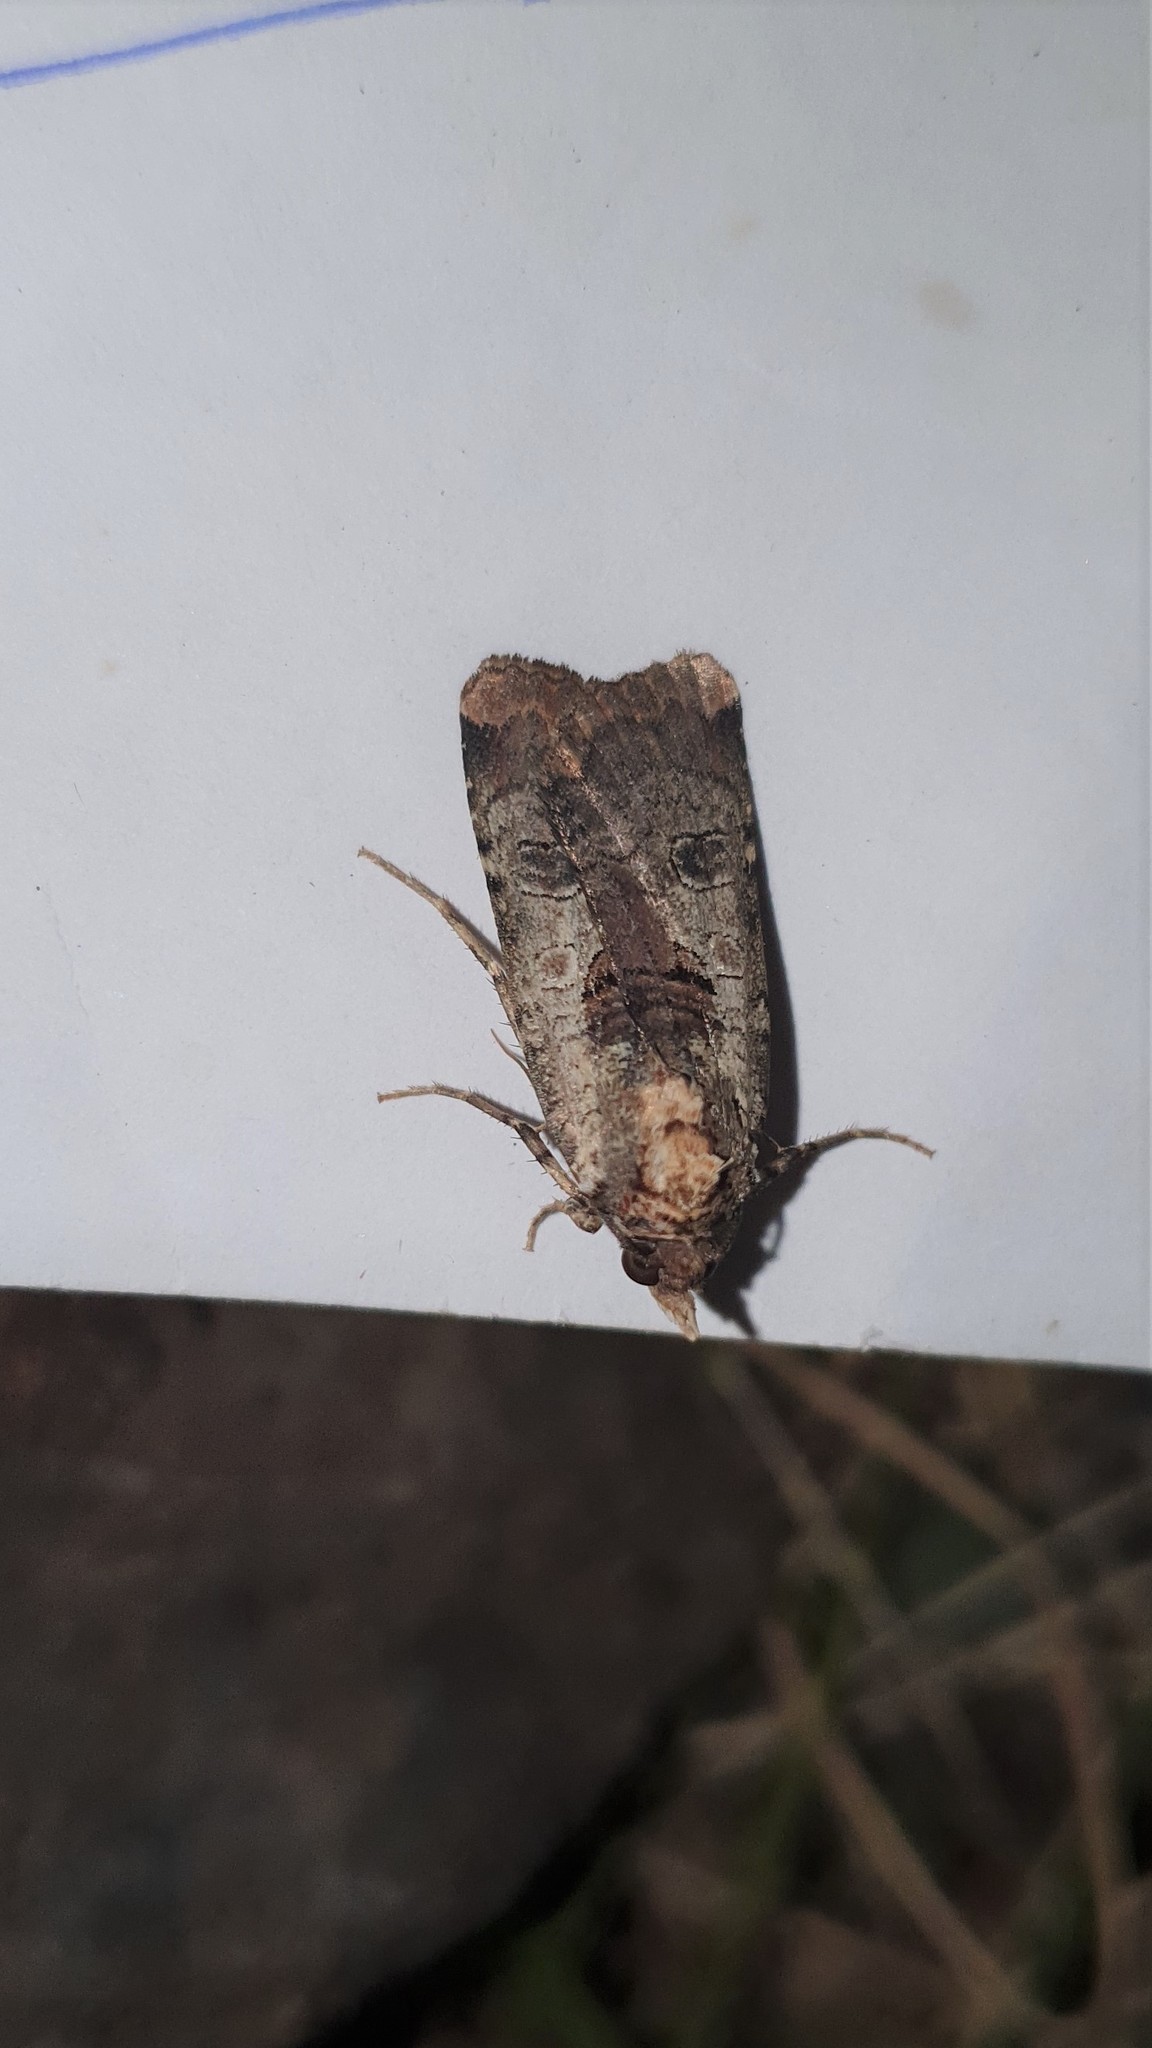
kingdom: Animalia
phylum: Arthropoda
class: Insecta
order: Lepidoptera
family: Noctuidae
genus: Epilecta
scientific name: Epilecta linogrisea
